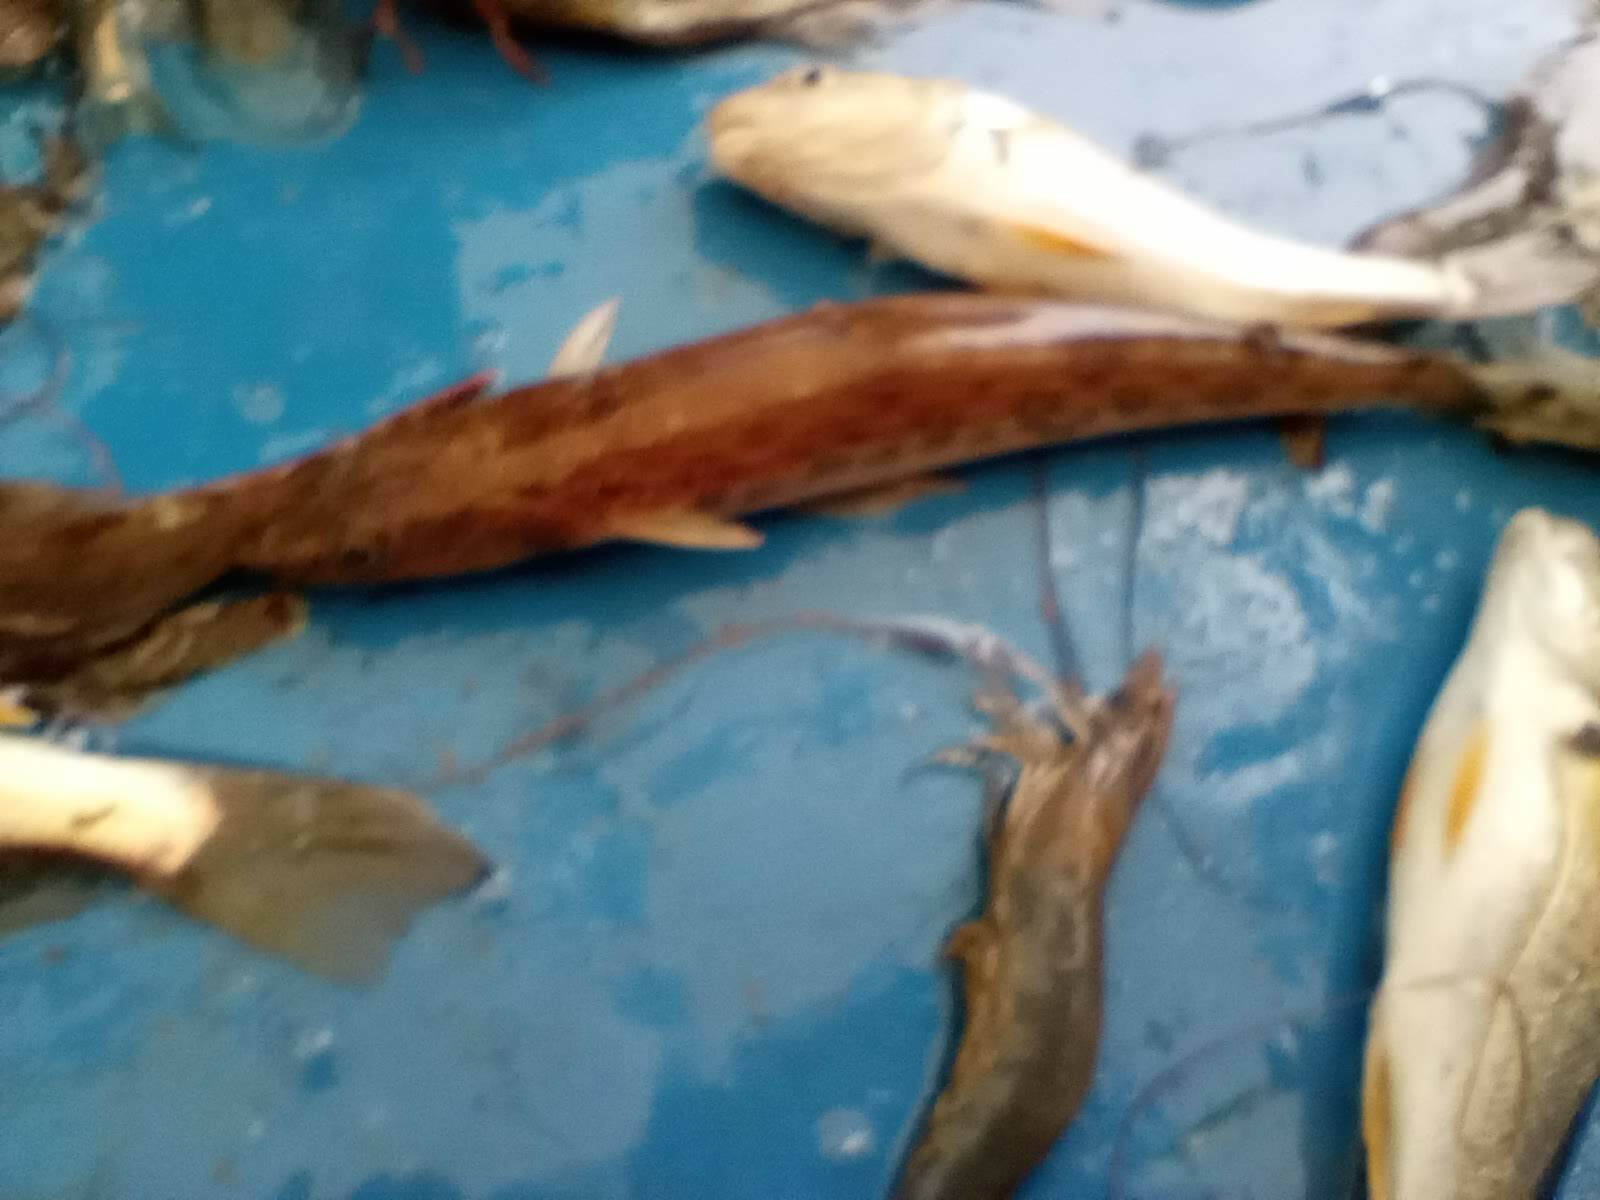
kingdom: Animalia
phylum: Chordata
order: Aulopiformes
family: Synodontidae
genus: Synodus
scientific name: Synodus foetens
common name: Inshore lizardfish
